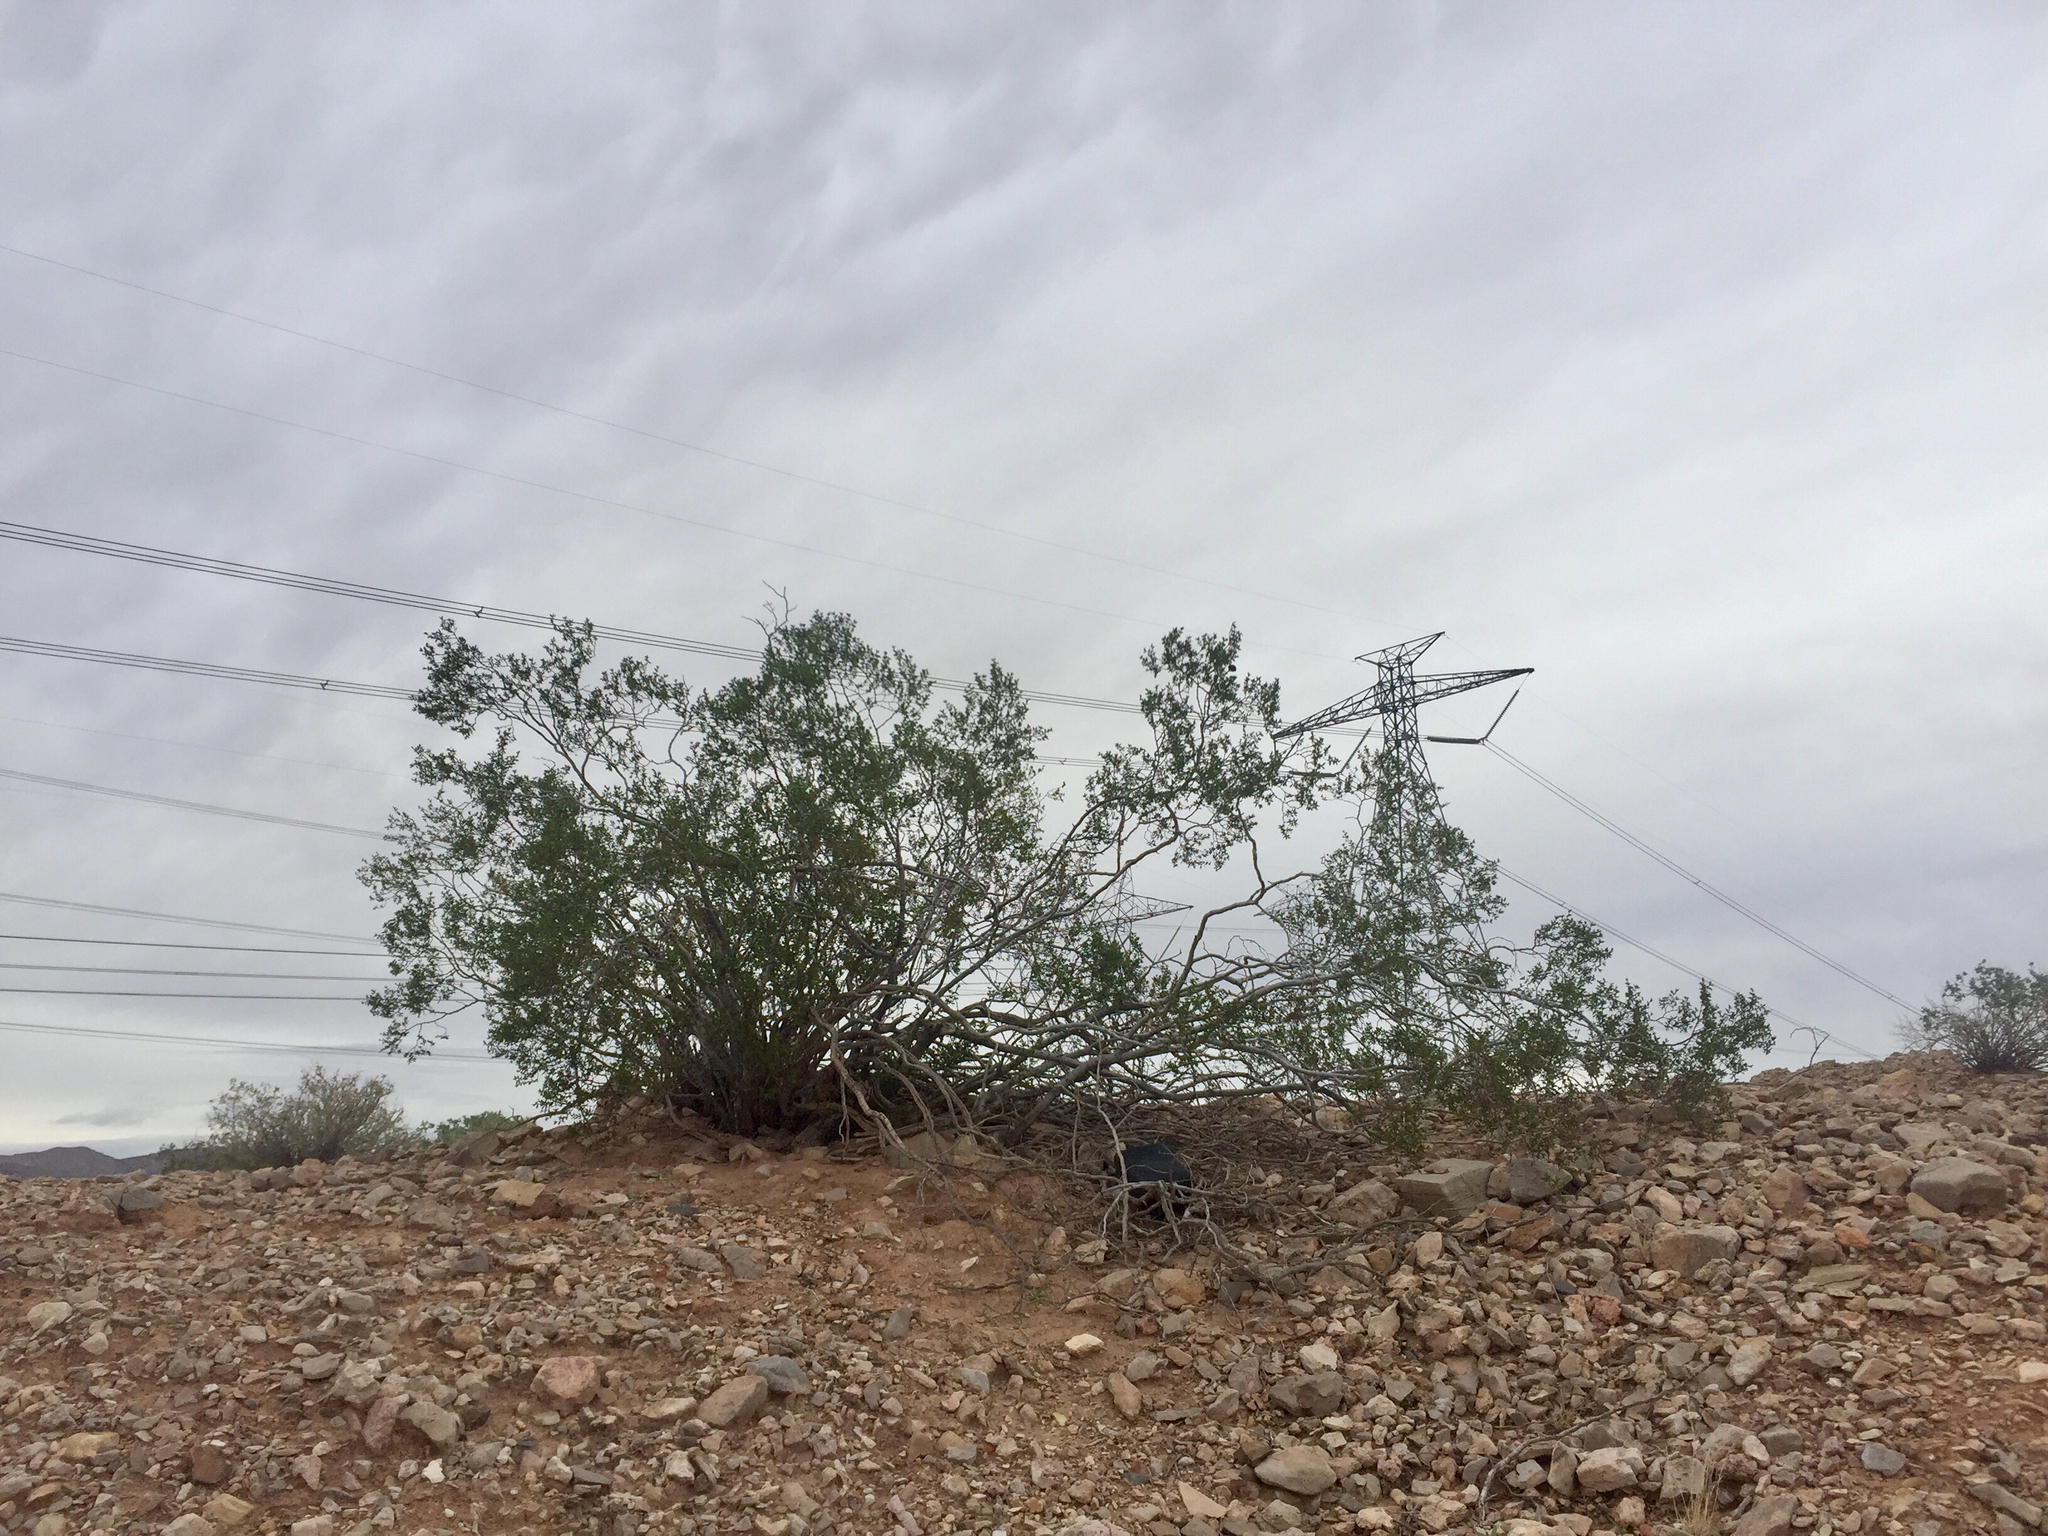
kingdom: Plantae
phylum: Tracheophyta
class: Magnoliopsida
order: Zygophyllales
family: Zygophyllaceae
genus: Larrea
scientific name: Larrea tridentata
